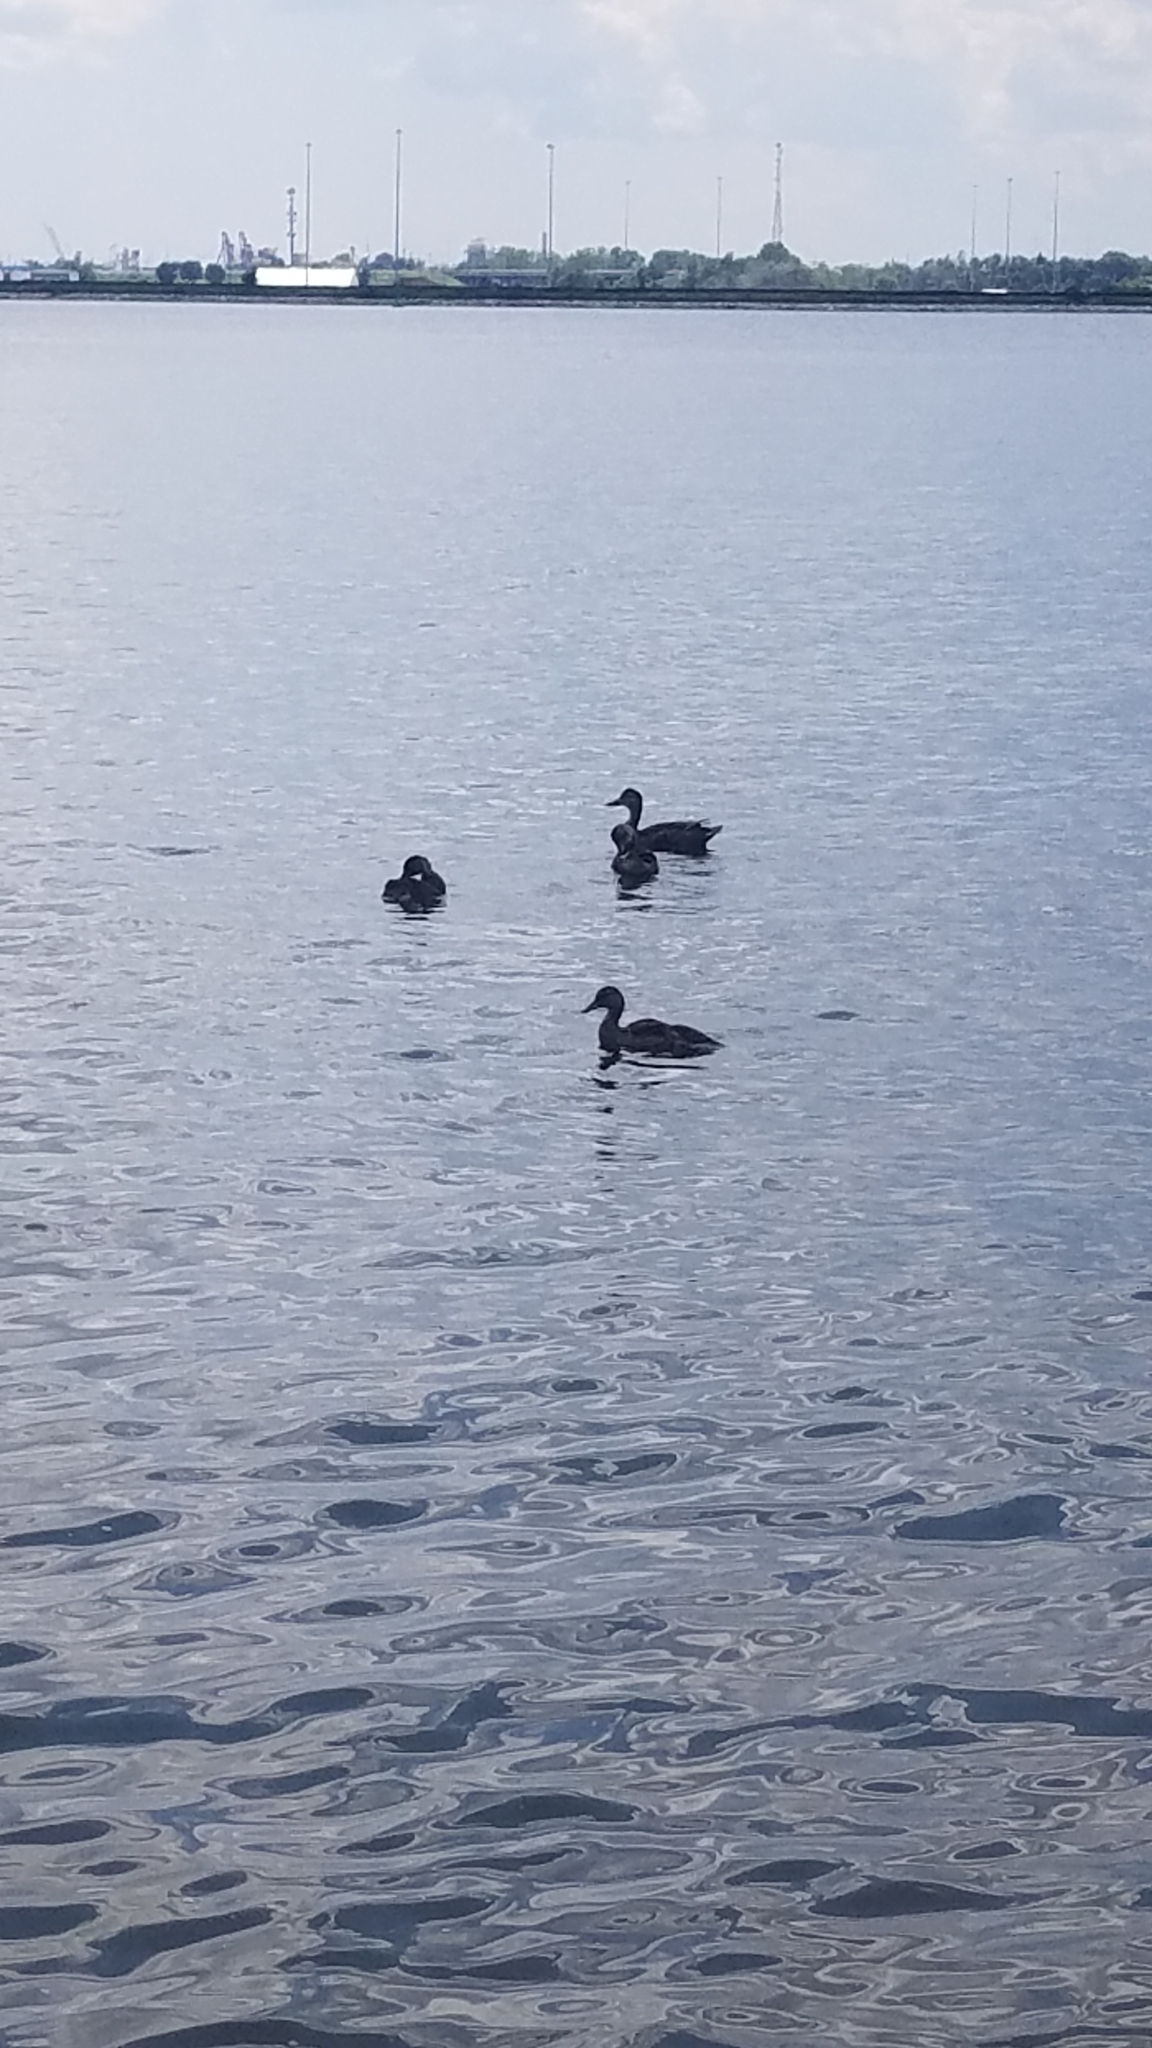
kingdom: Animalia
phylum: Chordata
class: Aves
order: Anseriformes
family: Anatidae
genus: Anas
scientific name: Anas platyrhynchos
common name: Mallard
